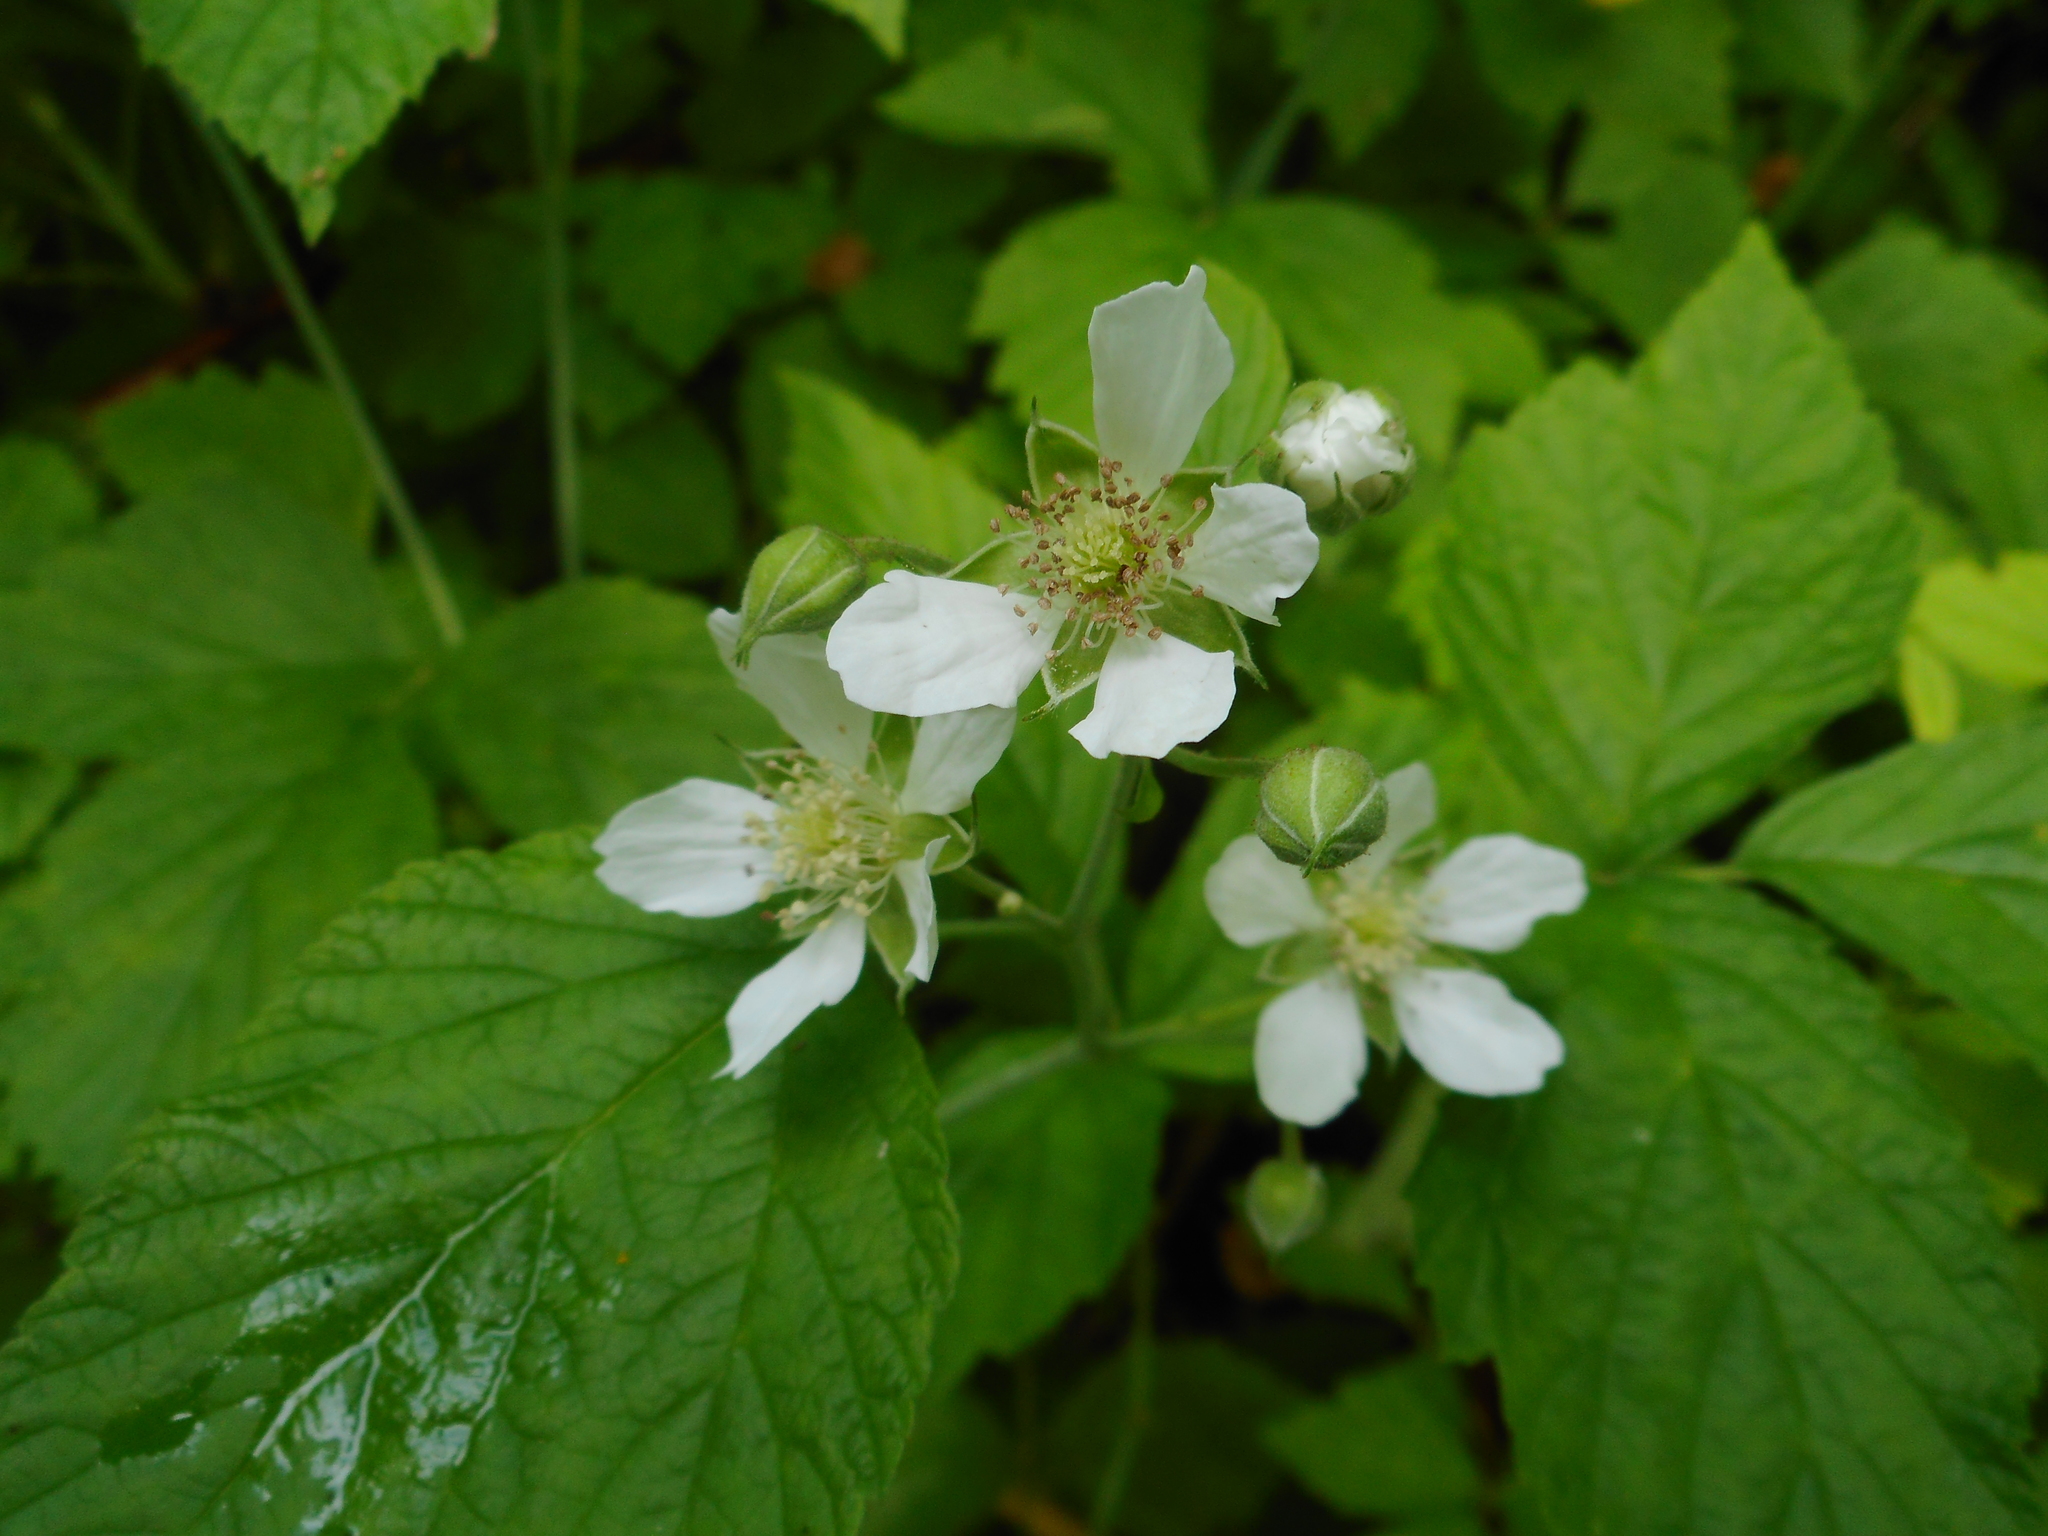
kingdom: Plantae
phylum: Tracheophyta
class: Magnoliopsida
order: Rosales
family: Rosaceae
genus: Rubus
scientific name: Rubus caesius
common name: Dewberry
